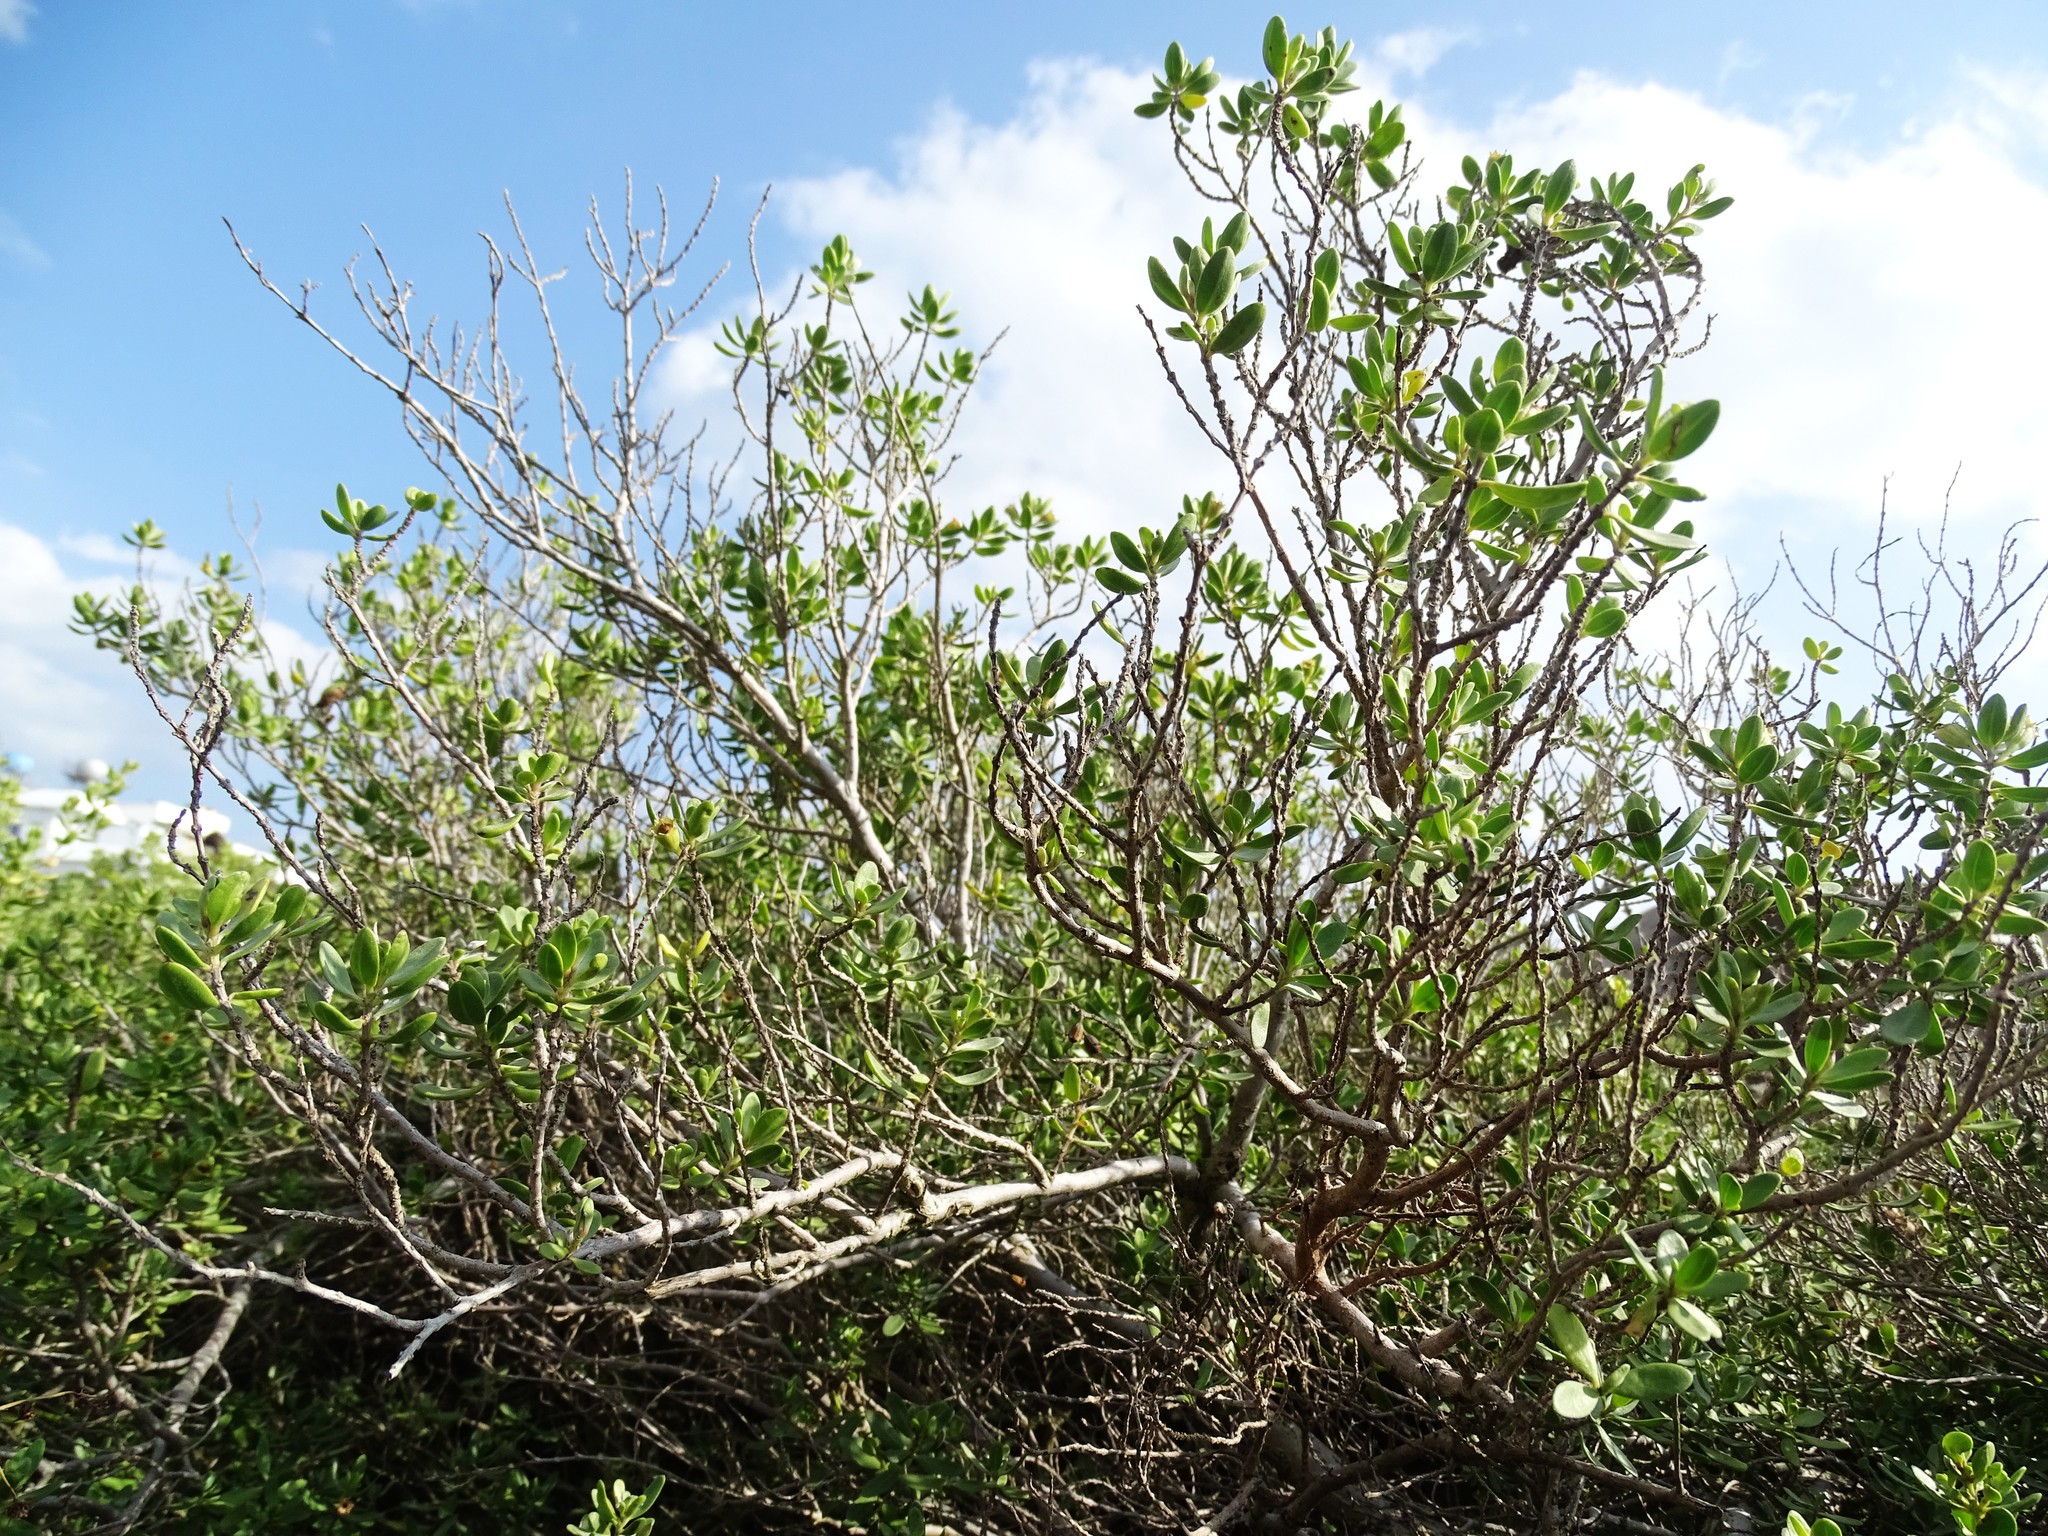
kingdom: Plantae
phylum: Tracheophyta
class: Magnoliopsida
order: Myrtales
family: Lythraceae
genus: Pemphis
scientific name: Pemphis acidula
